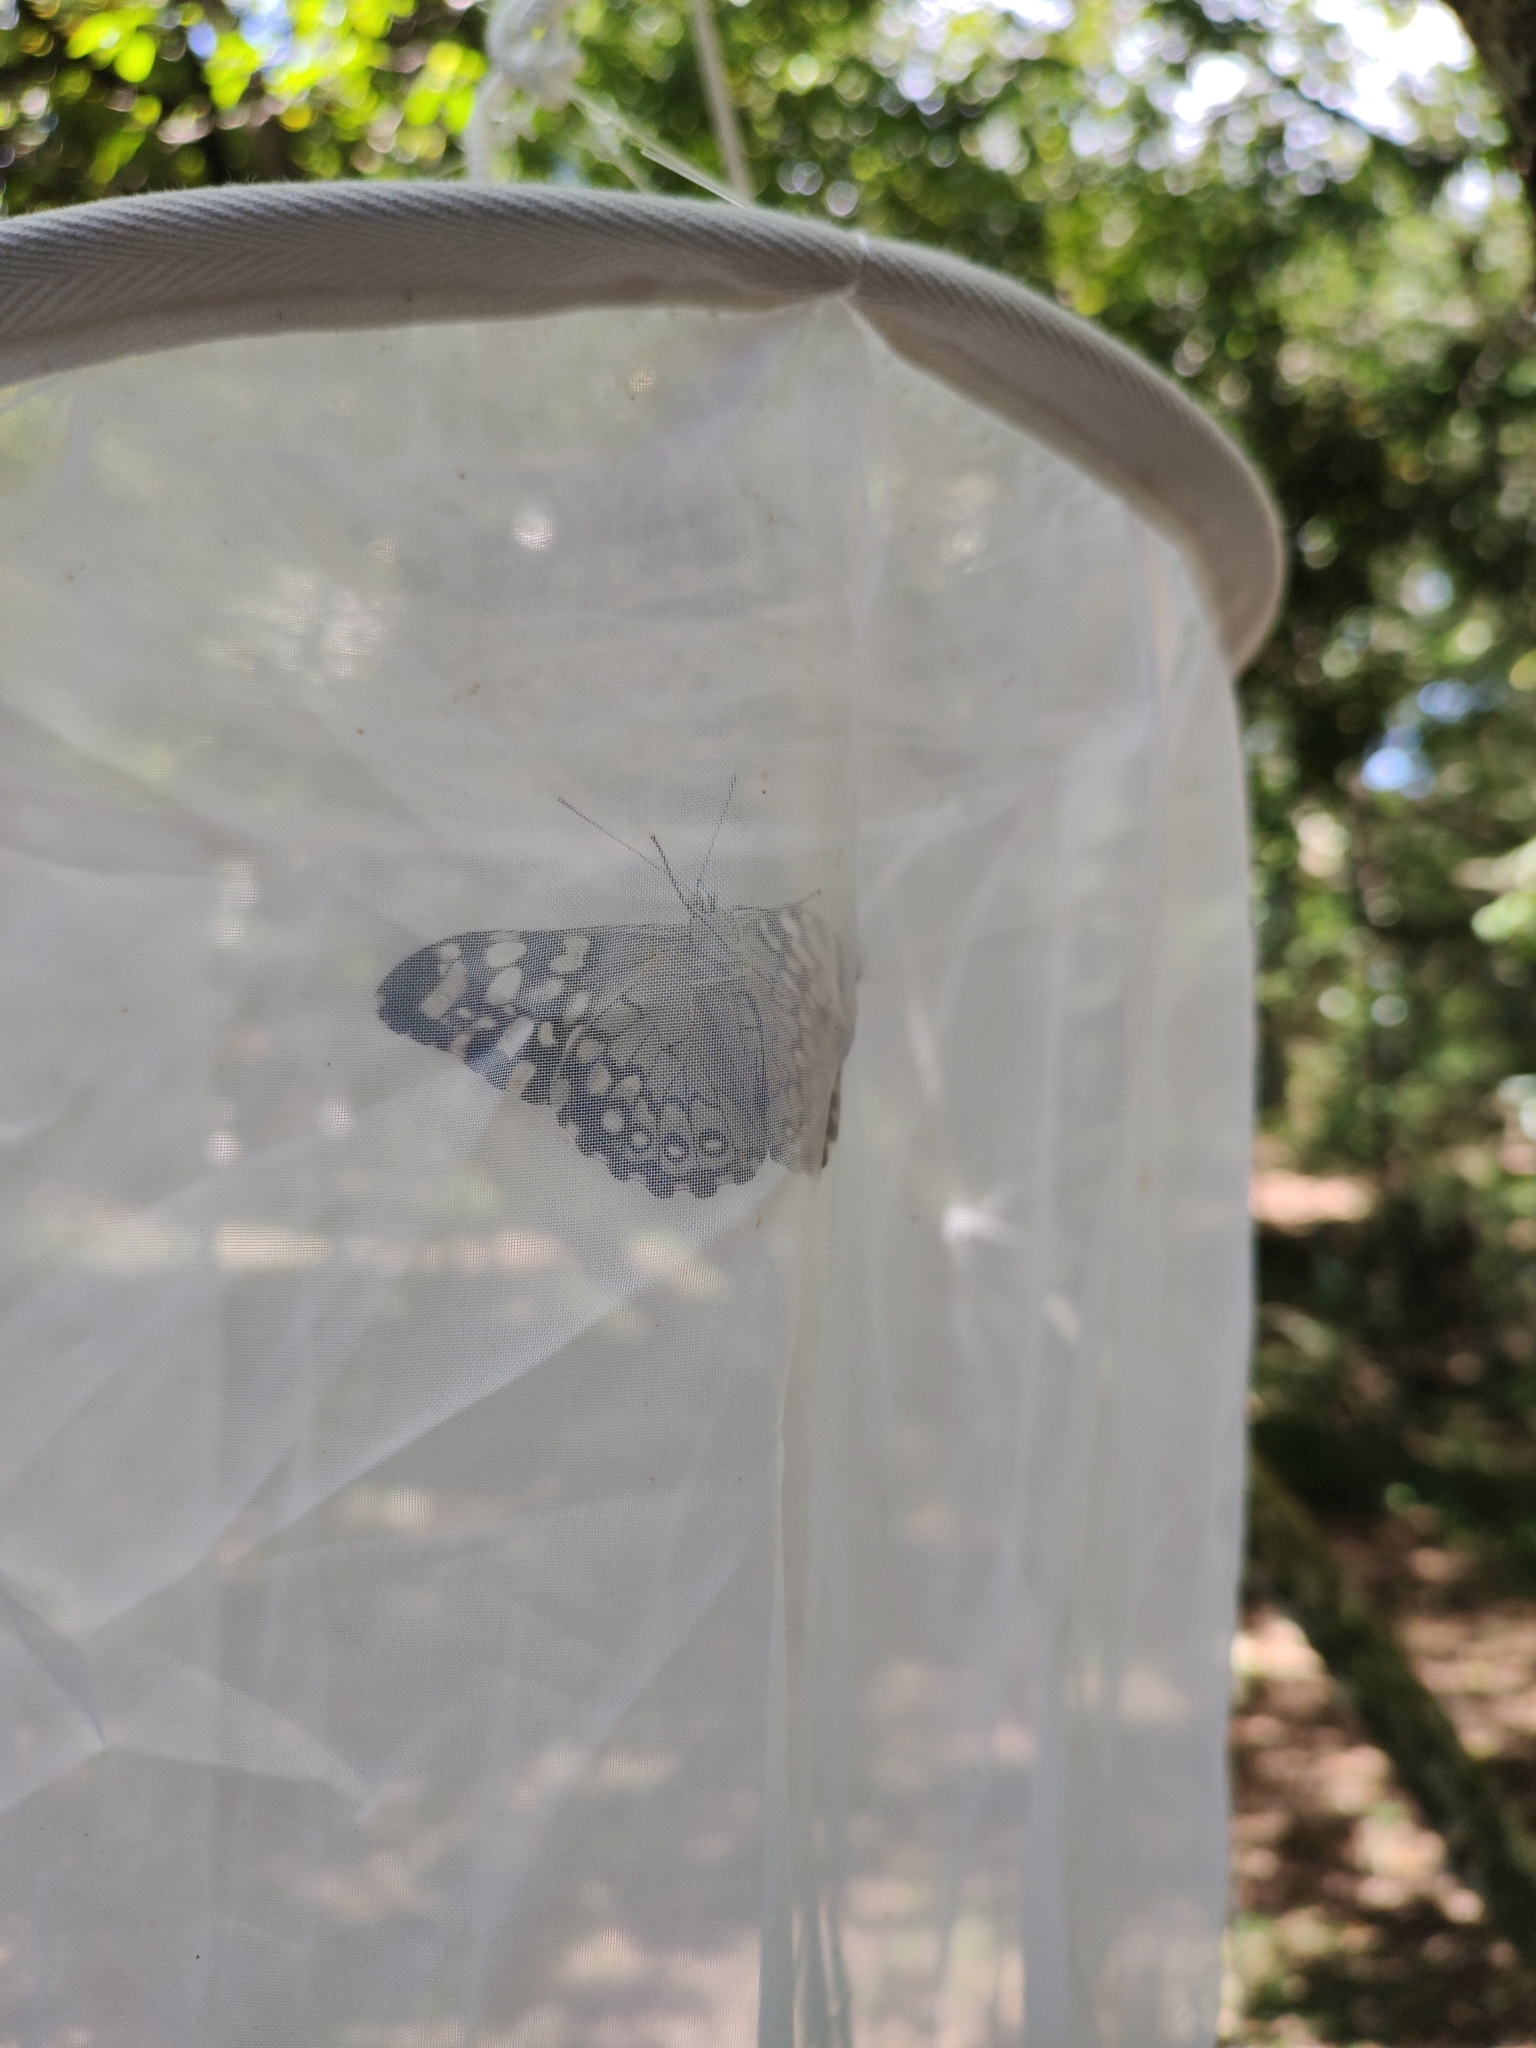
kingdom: Animalia
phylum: Arthropoda
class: Insecta
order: Lepidoptera
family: Nymphalidae
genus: Hamadryas
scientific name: Hamadryas epinome
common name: Epinome cracker
